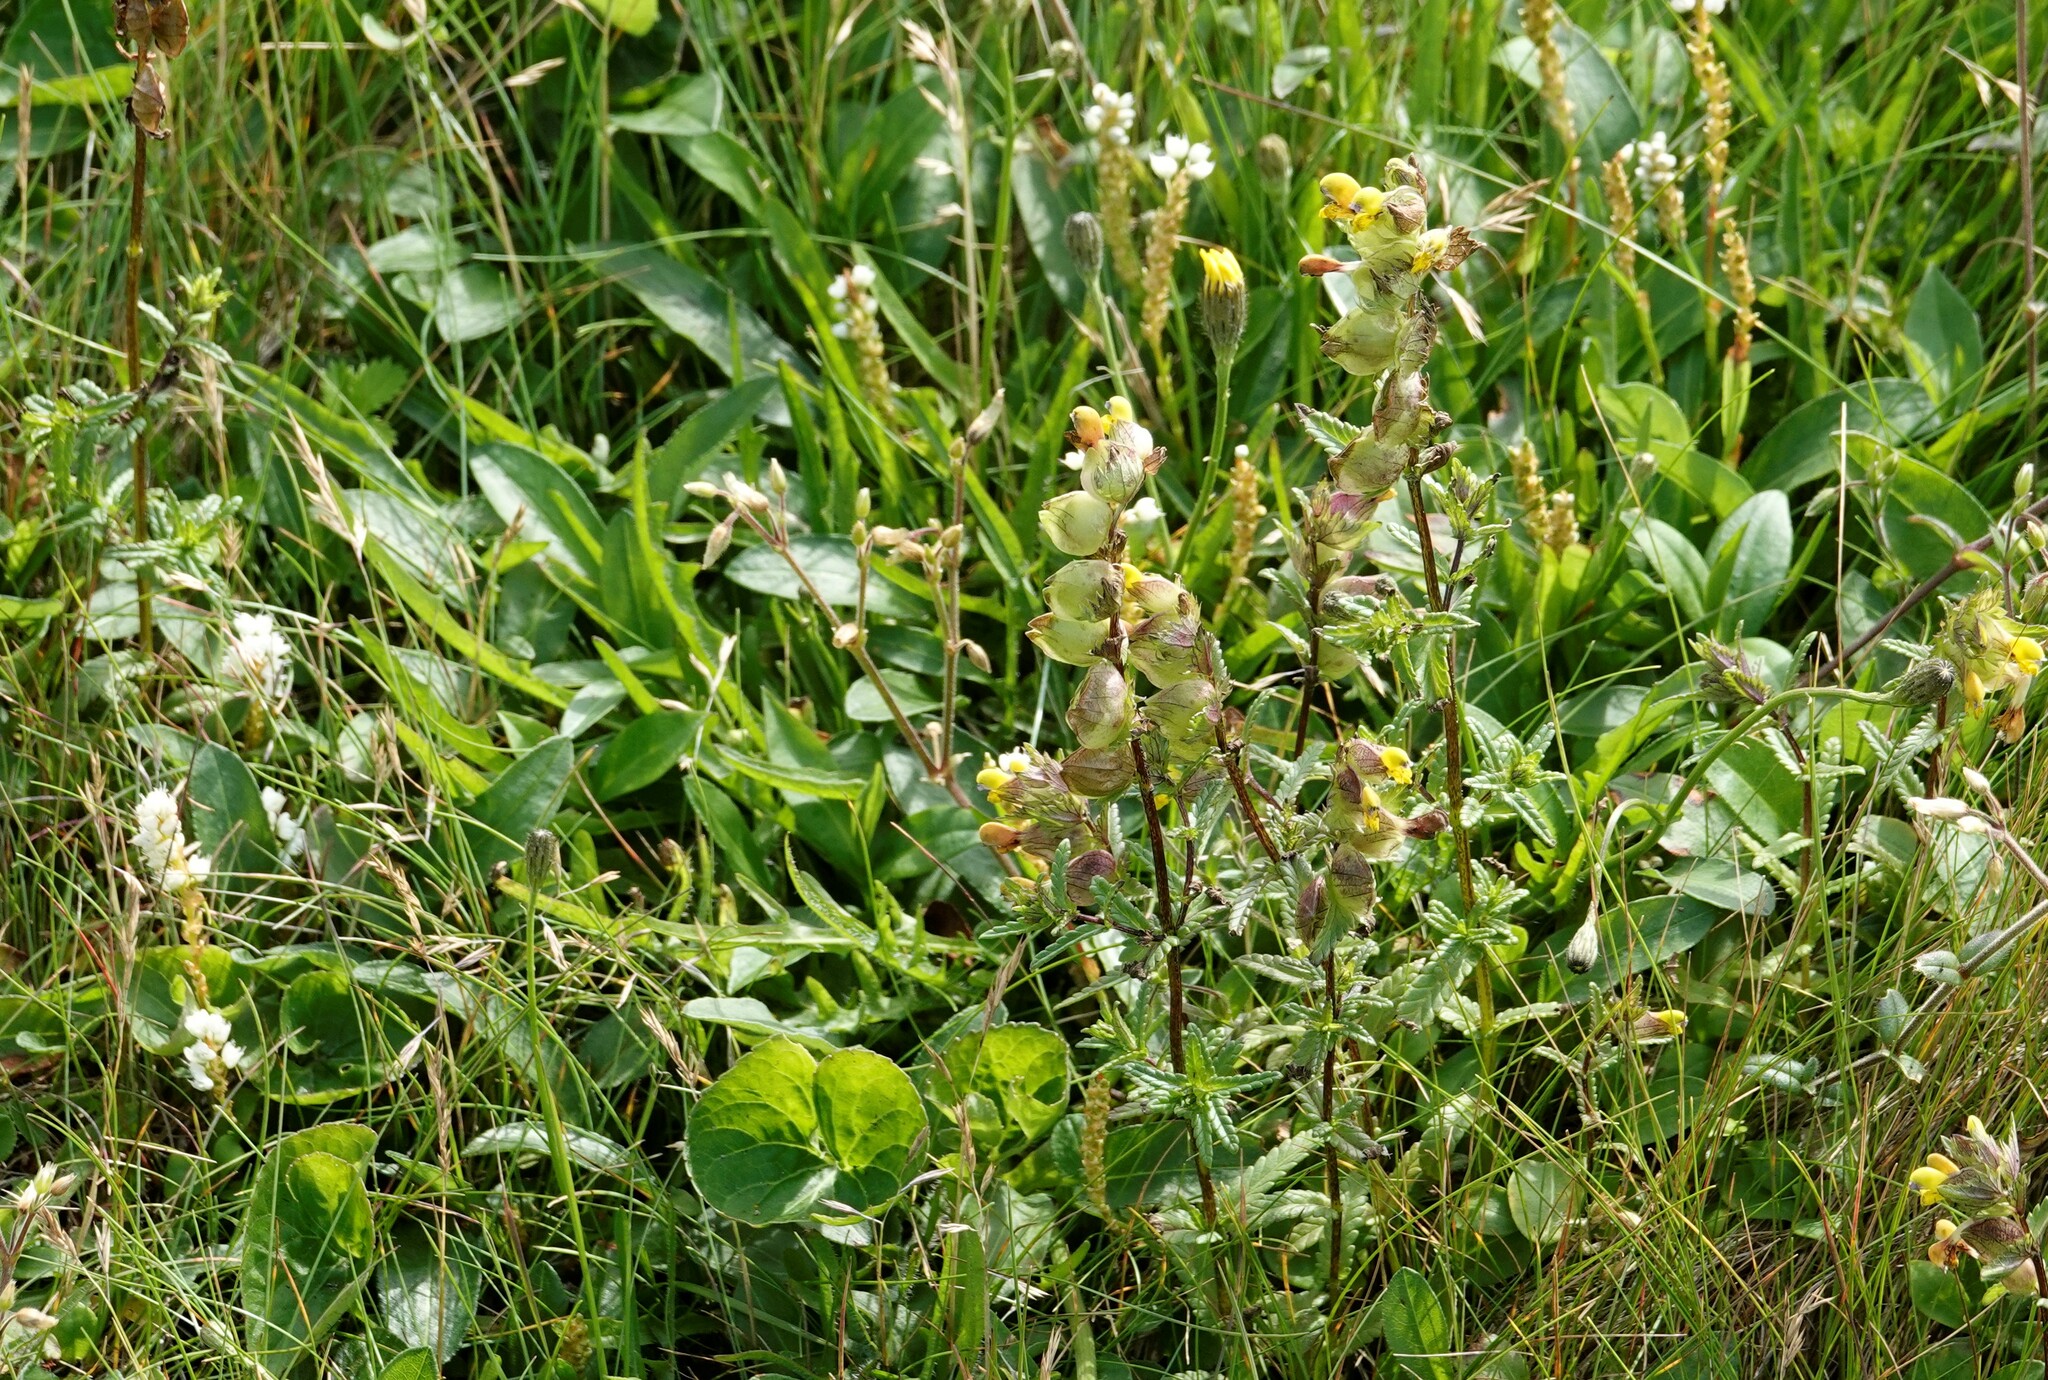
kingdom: Plantae
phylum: Tracheophyta
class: Magnoliopsida
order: Lamiales
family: Orobanchaceae
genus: Rhinanthus
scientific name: Rhinanthus minor
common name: Yellow-rattle
